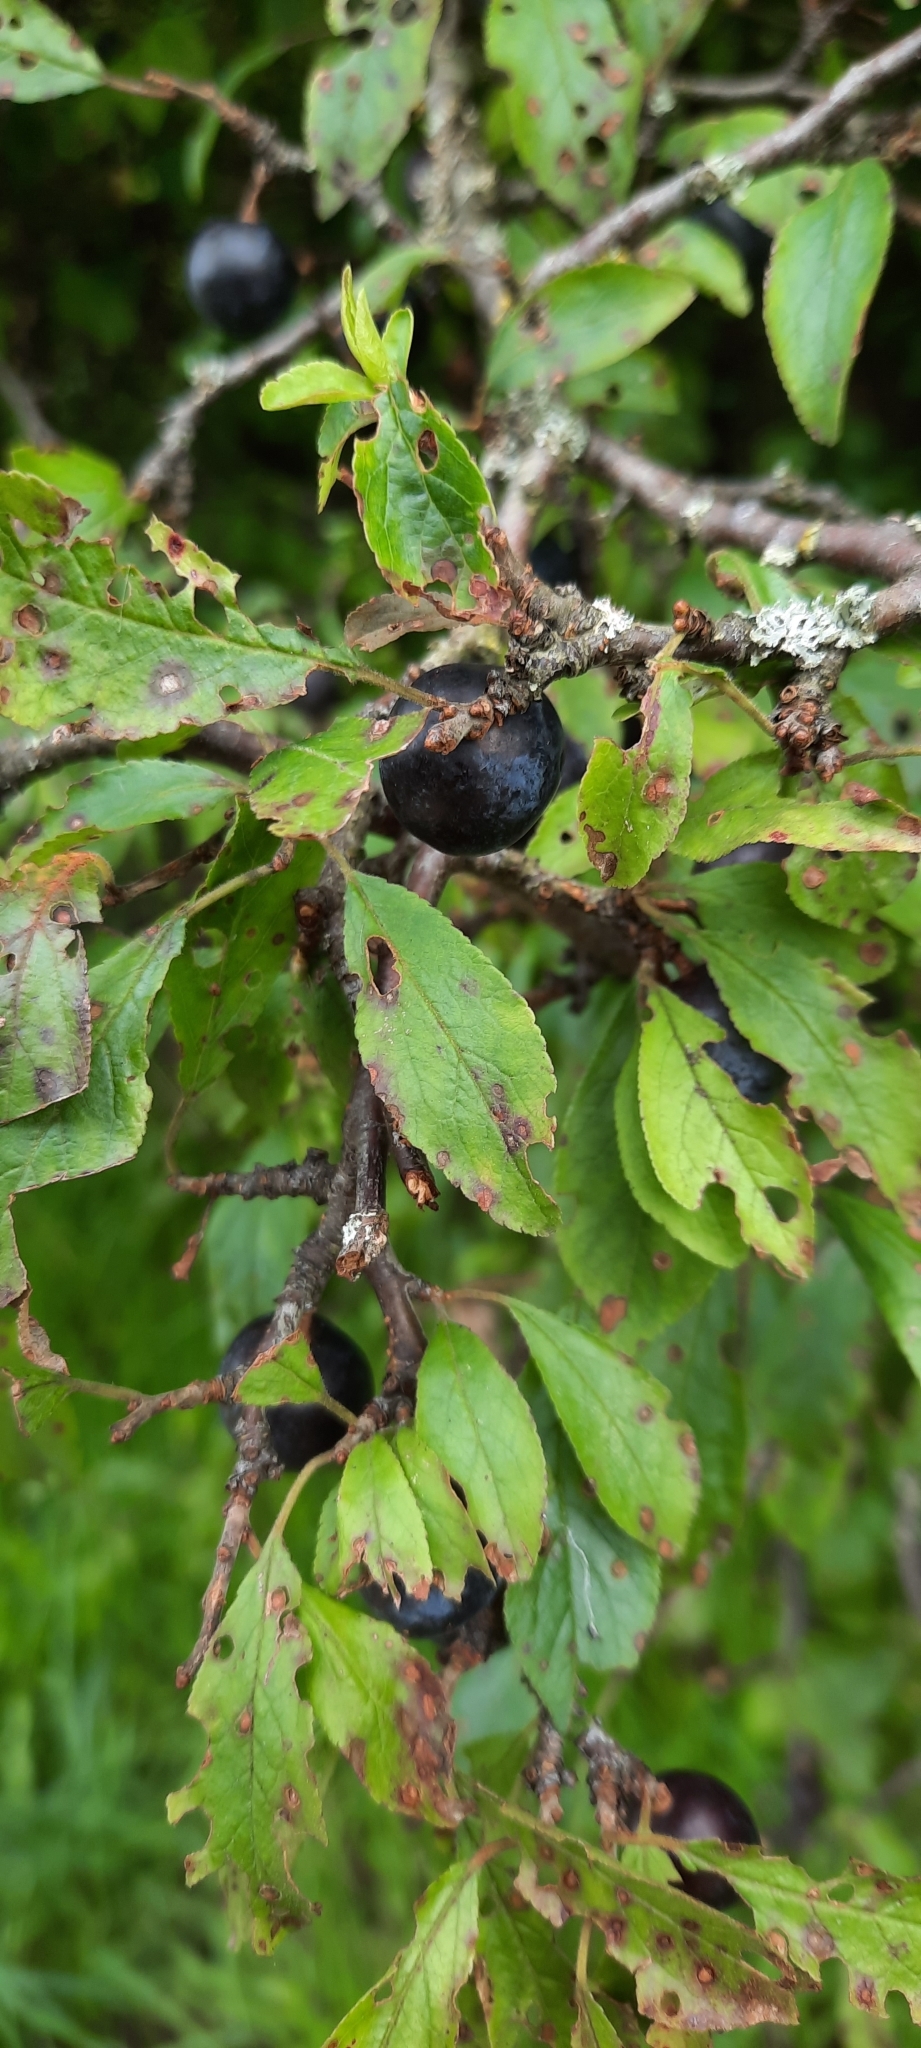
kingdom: Plantae
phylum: Tracheophyta
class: Magnoliopsida
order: Rosales
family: Rosaceae
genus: Prunus
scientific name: Prunus spinosa
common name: Blackthorn
